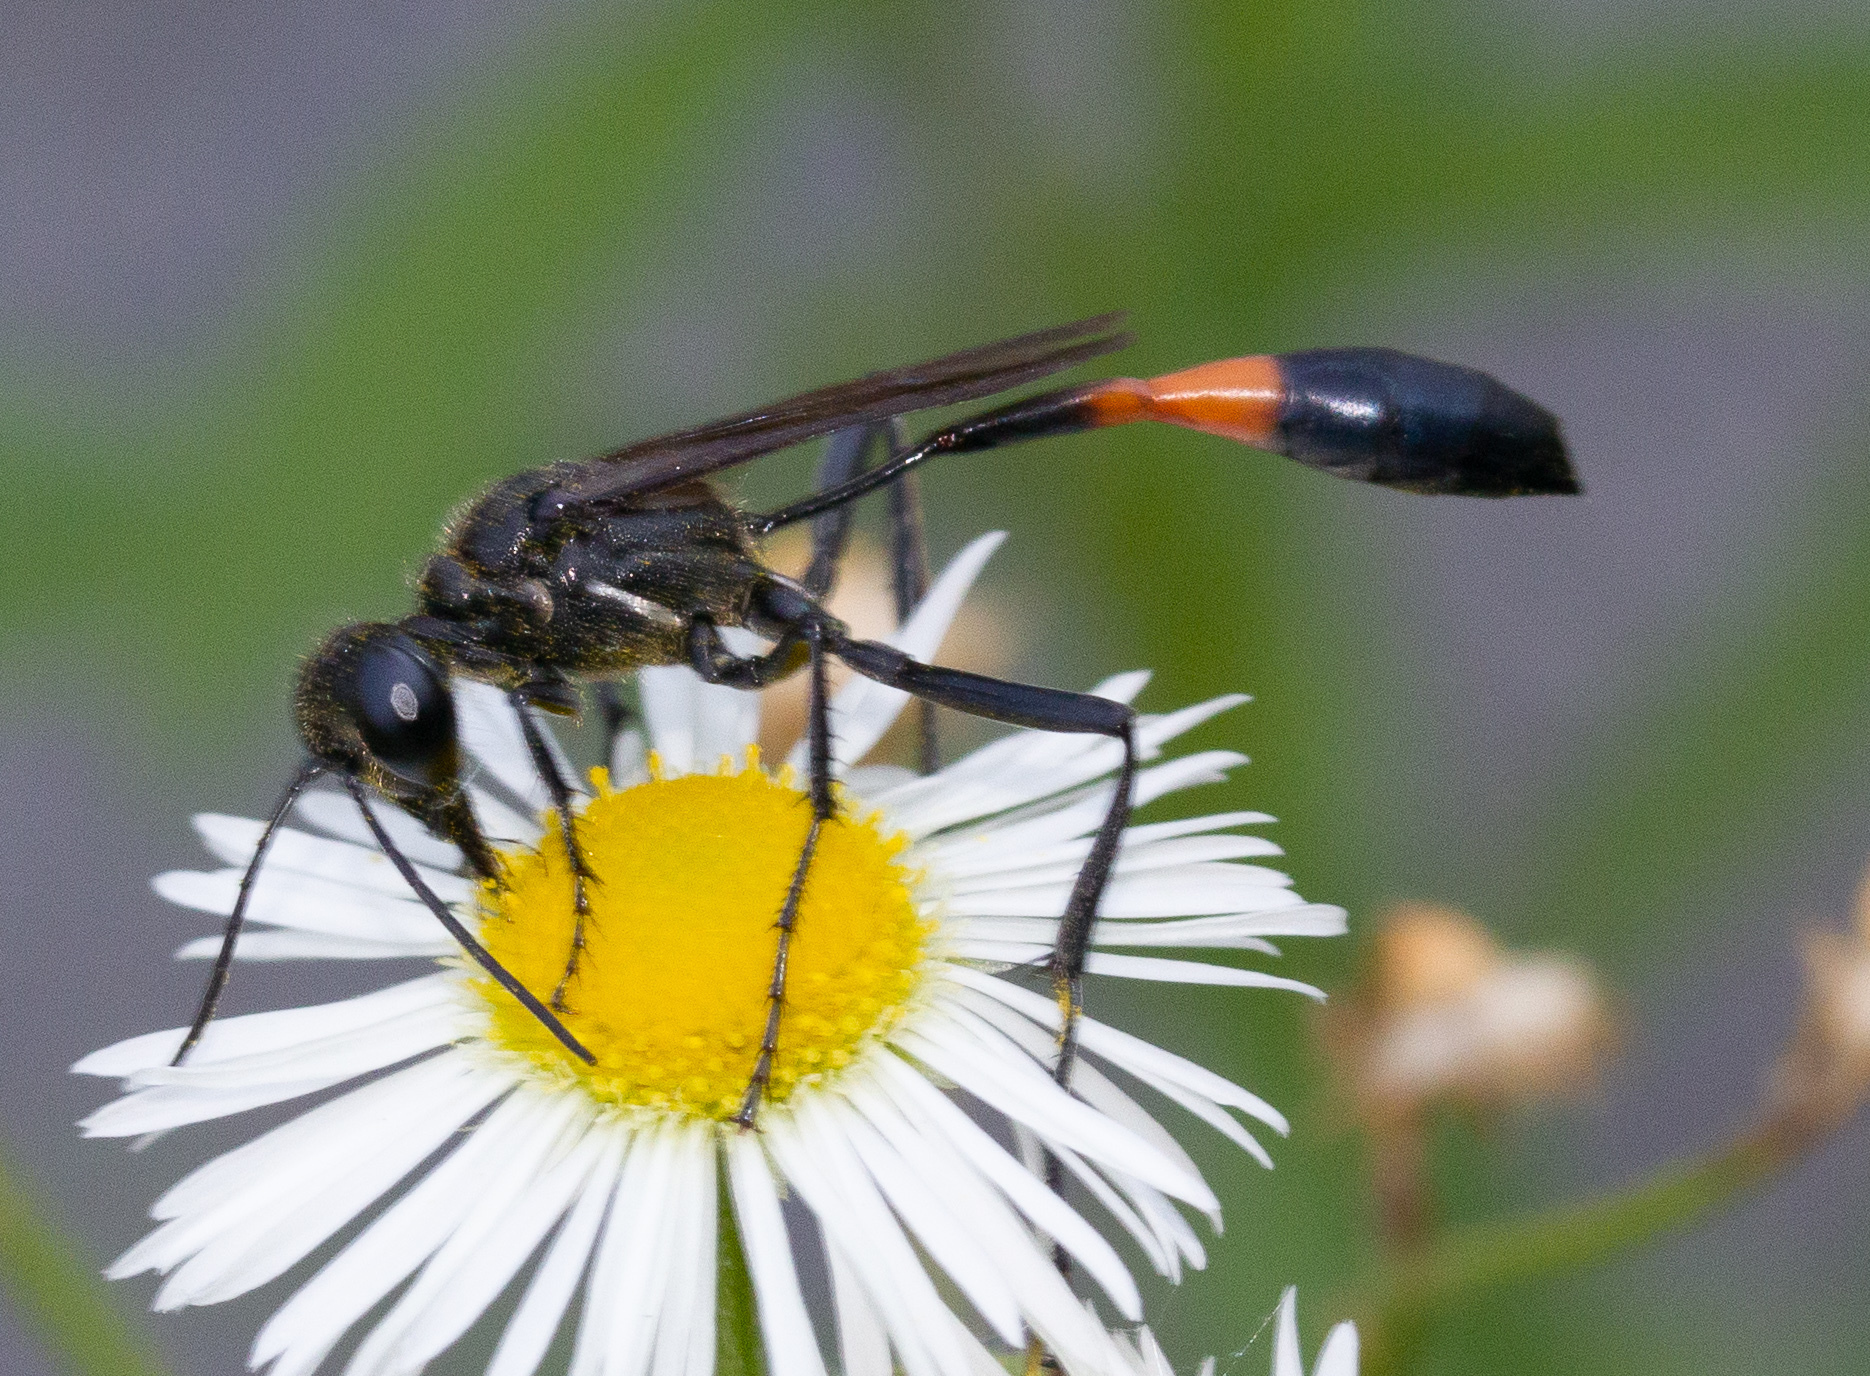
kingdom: Animalia
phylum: Arthropoda
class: Insecta
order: Hymenoptera
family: Sphecidae
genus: Ammophila
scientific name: Ammophila procera
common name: Common thread-waisted wasp
